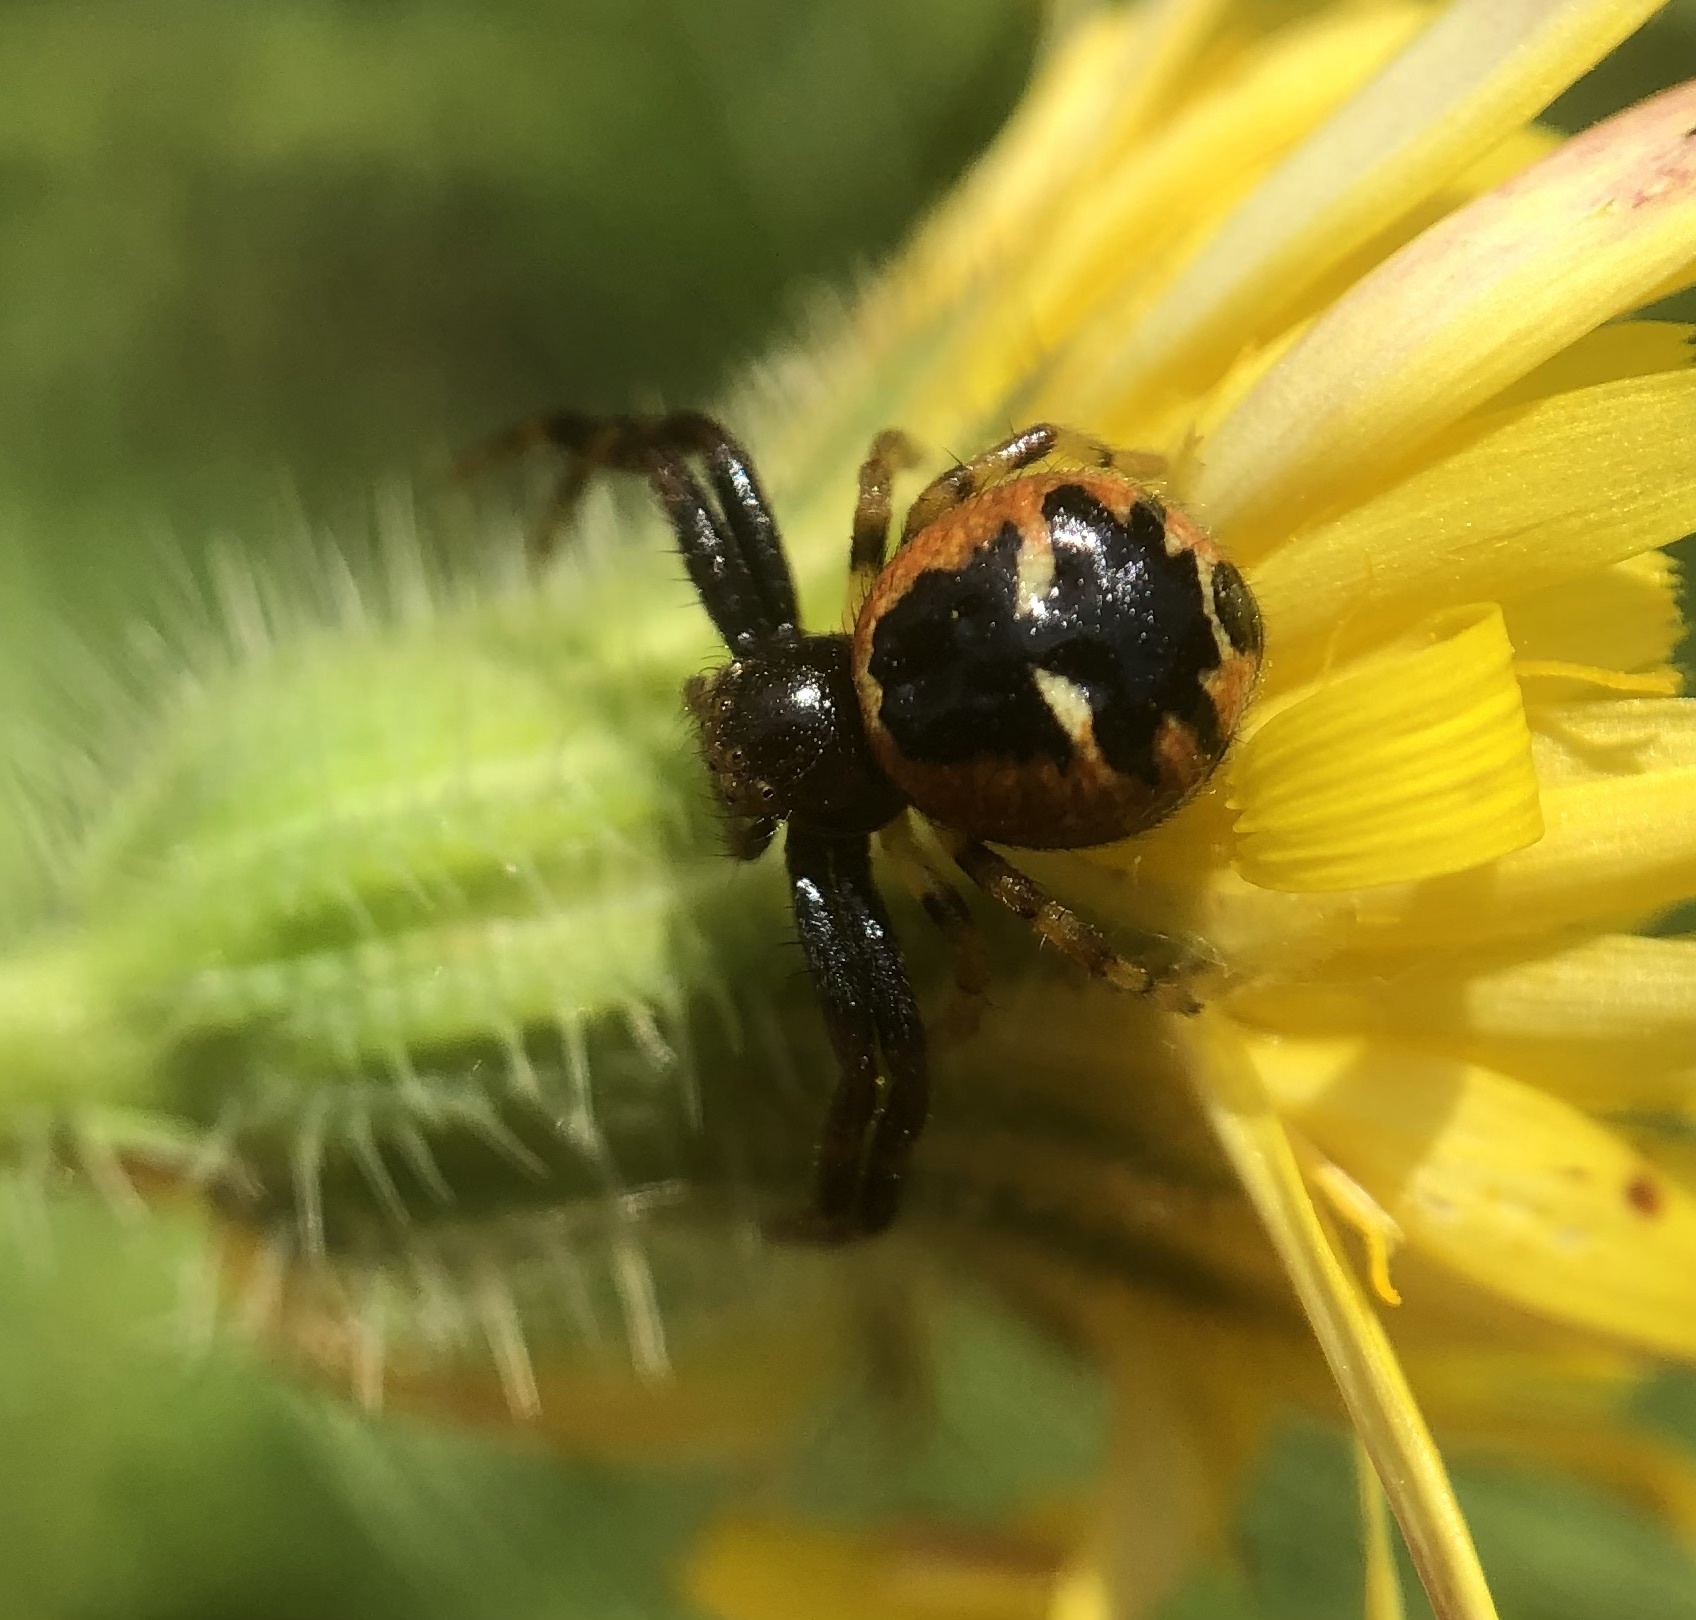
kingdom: Animalia
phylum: Arthropoda
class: Arachnida
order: Araneae
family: Thomisidae
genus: Synema
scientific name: Synema globosum
